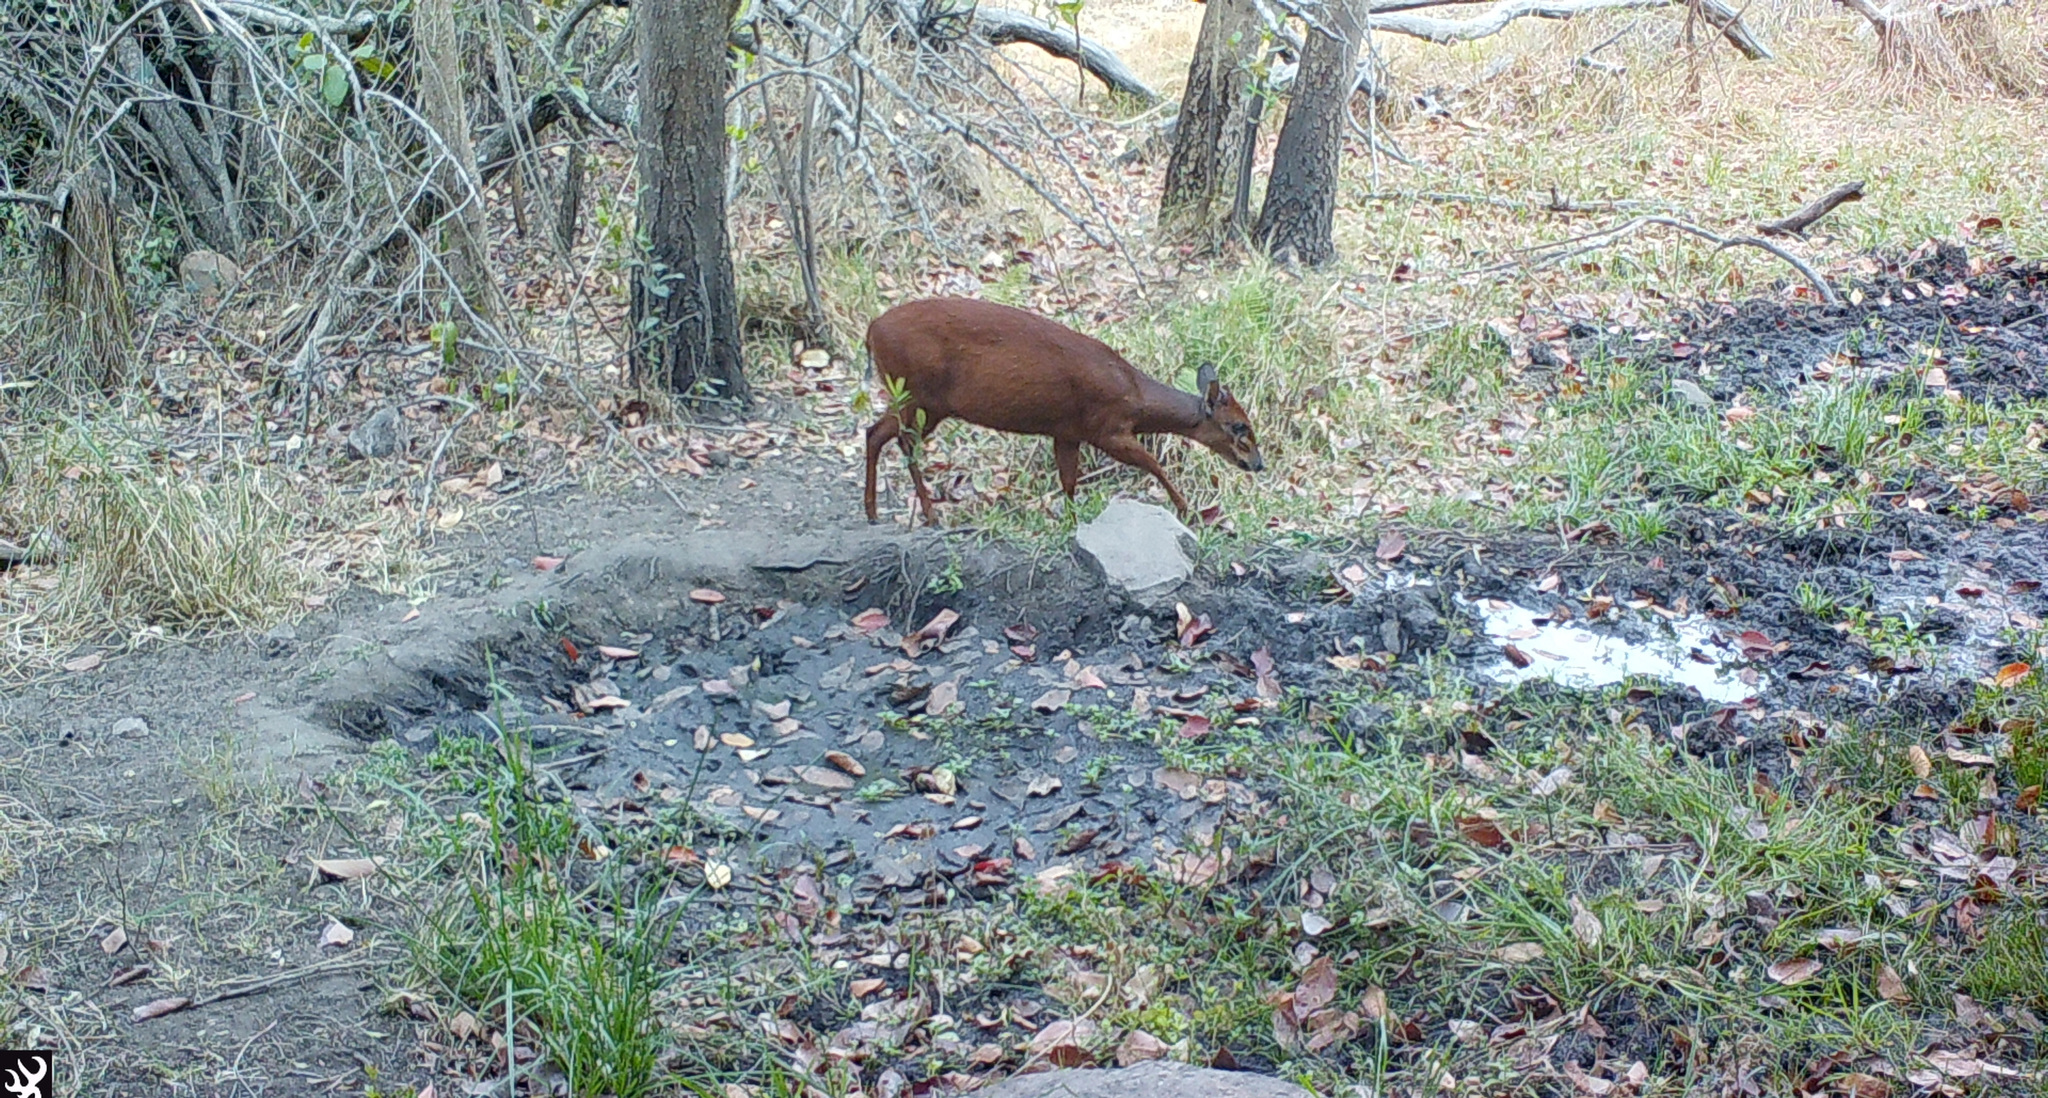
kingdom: Animalia
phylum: Chordata
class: Mammalia
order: Artiodactyla
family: Bovidae
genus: Cephalophus
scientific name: Cephalophus natalensis
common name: Red duiker
